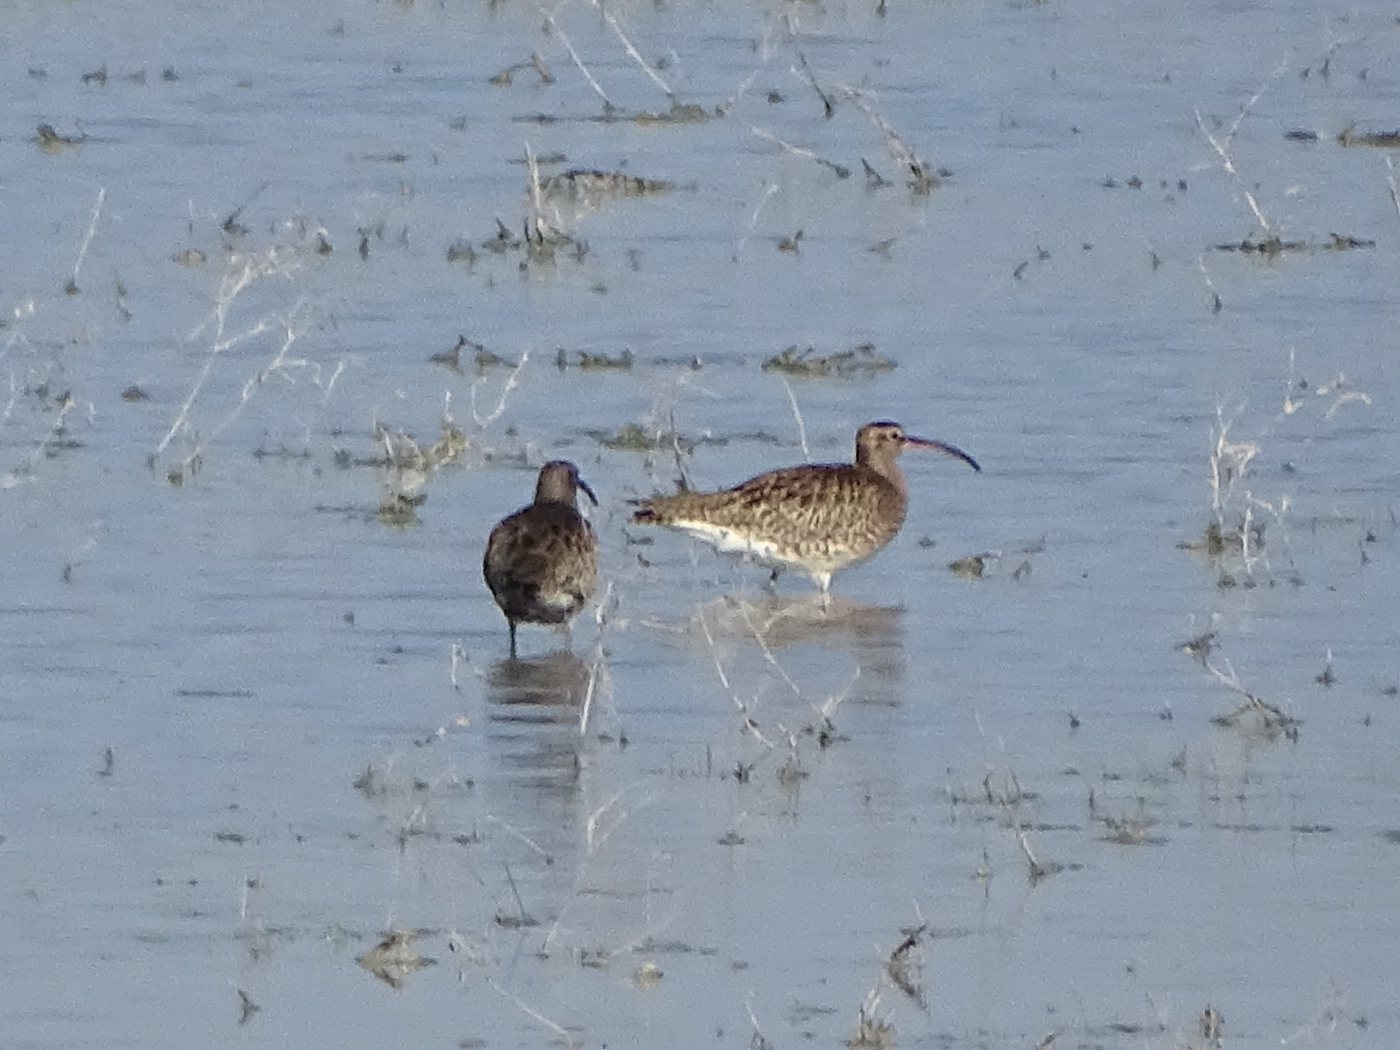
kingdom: Animalia
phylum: Chordata
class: Aves
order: Charadriiformes
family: Scolopacidae
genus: Numenius
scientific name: Numenius phaeopus
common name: Whimbrel
